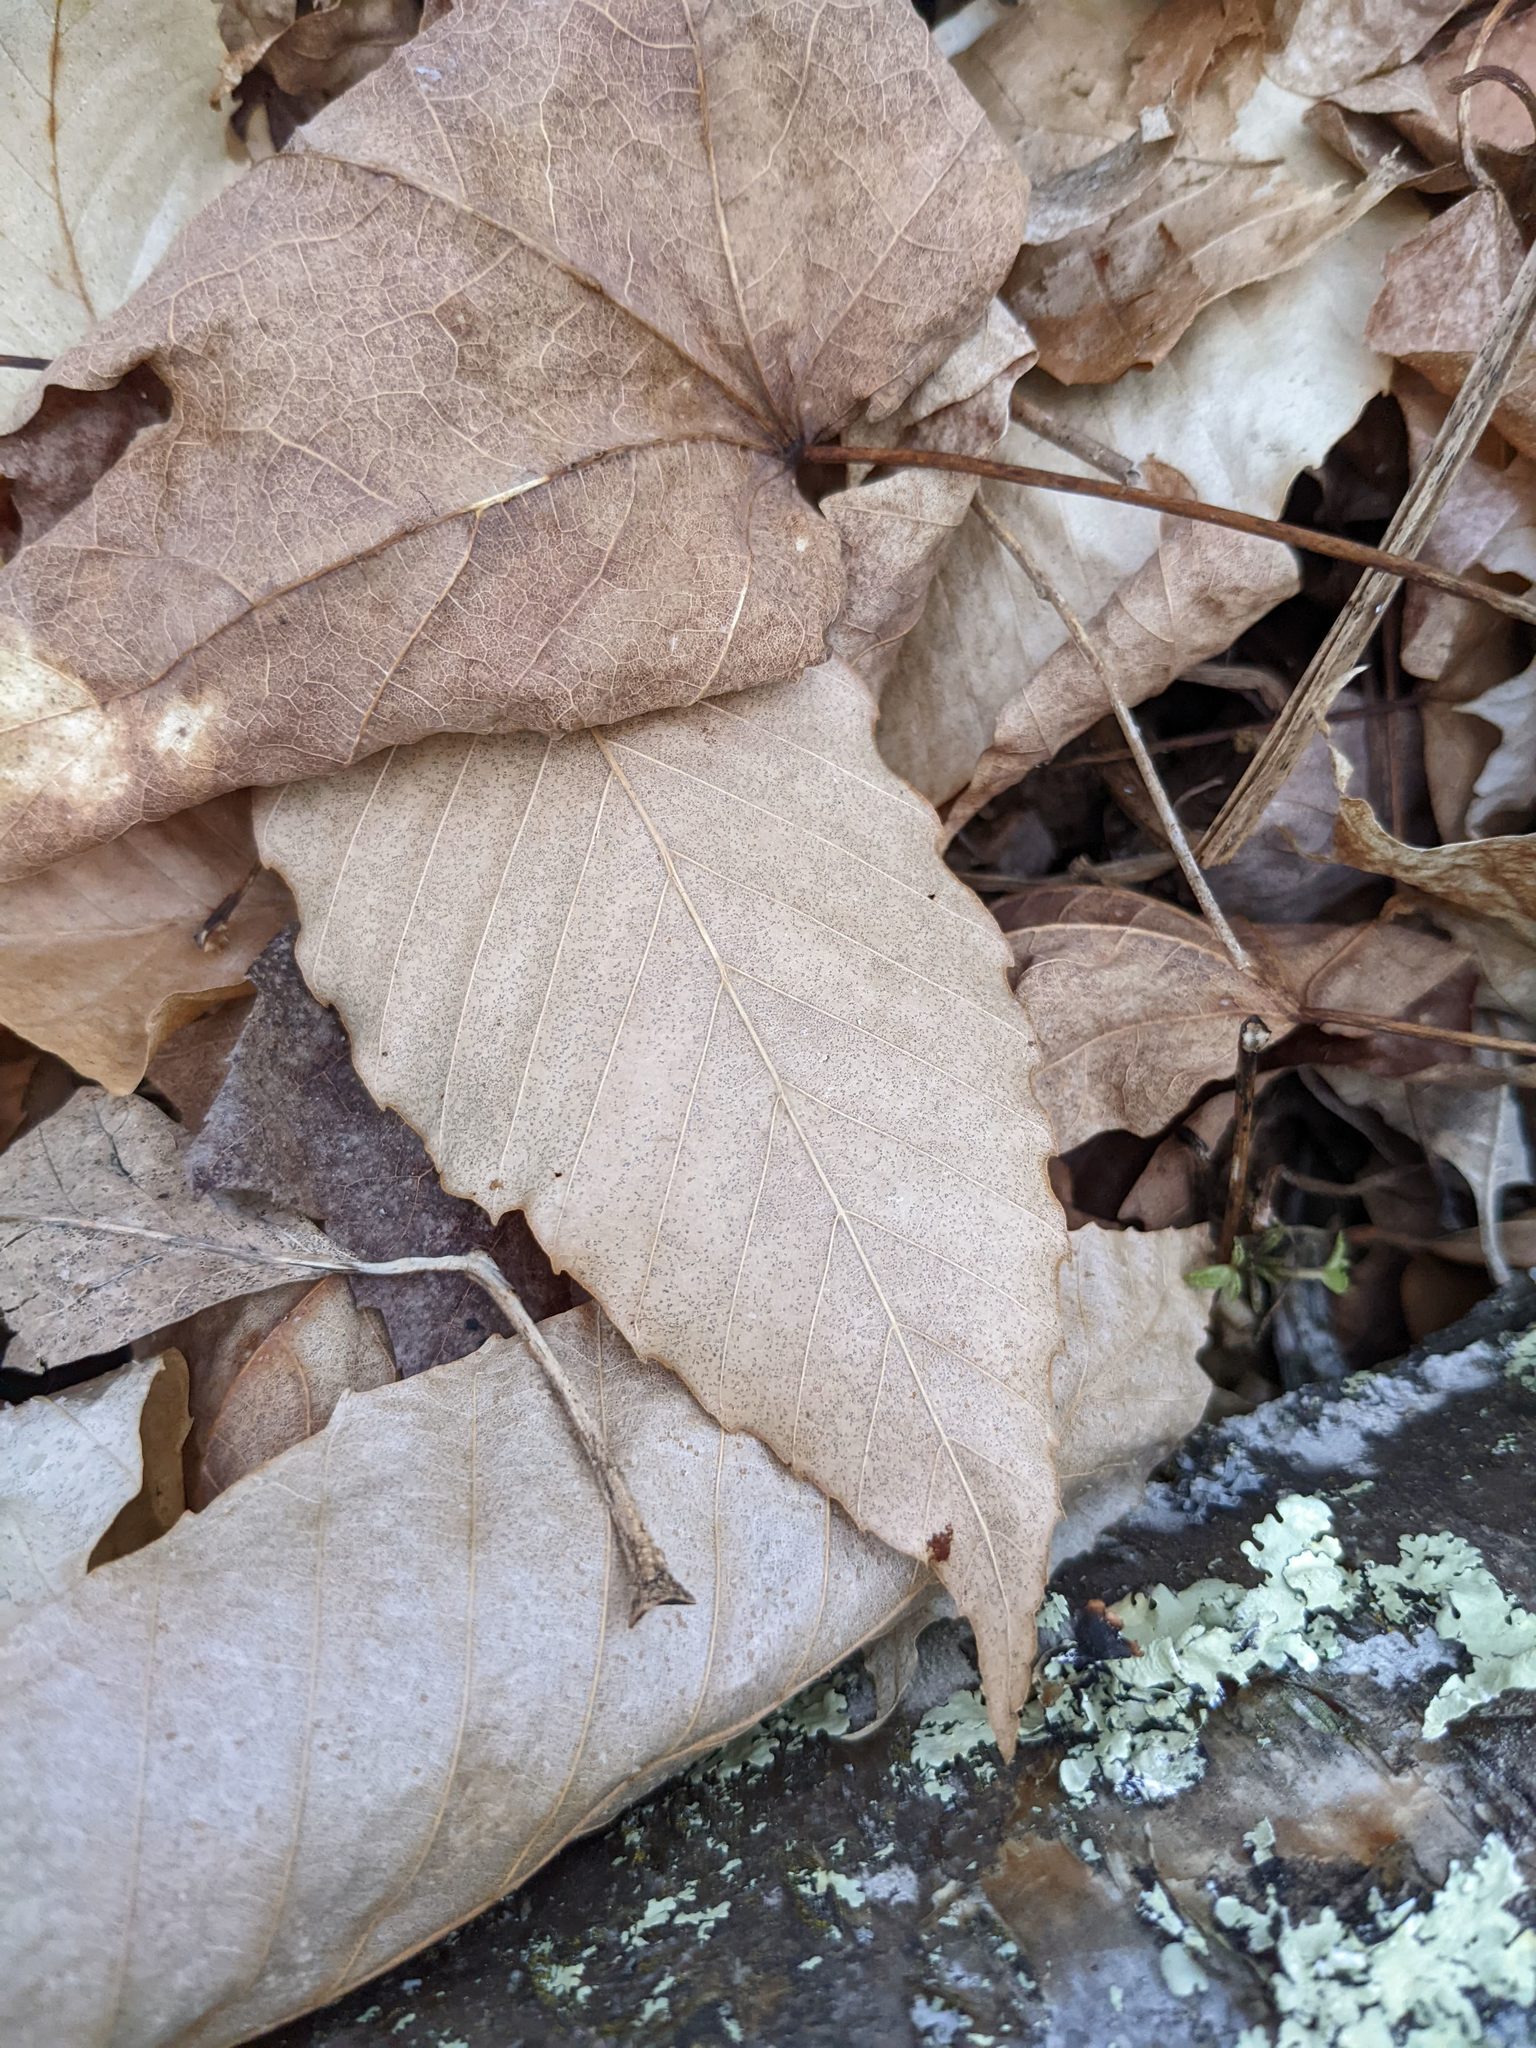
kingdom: Plantae
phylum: Tracheophyta
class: Magnoliopsida
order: Fagales
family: Fagaceae
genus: Fagus
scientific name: Fagus grandifolia
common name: American beech
